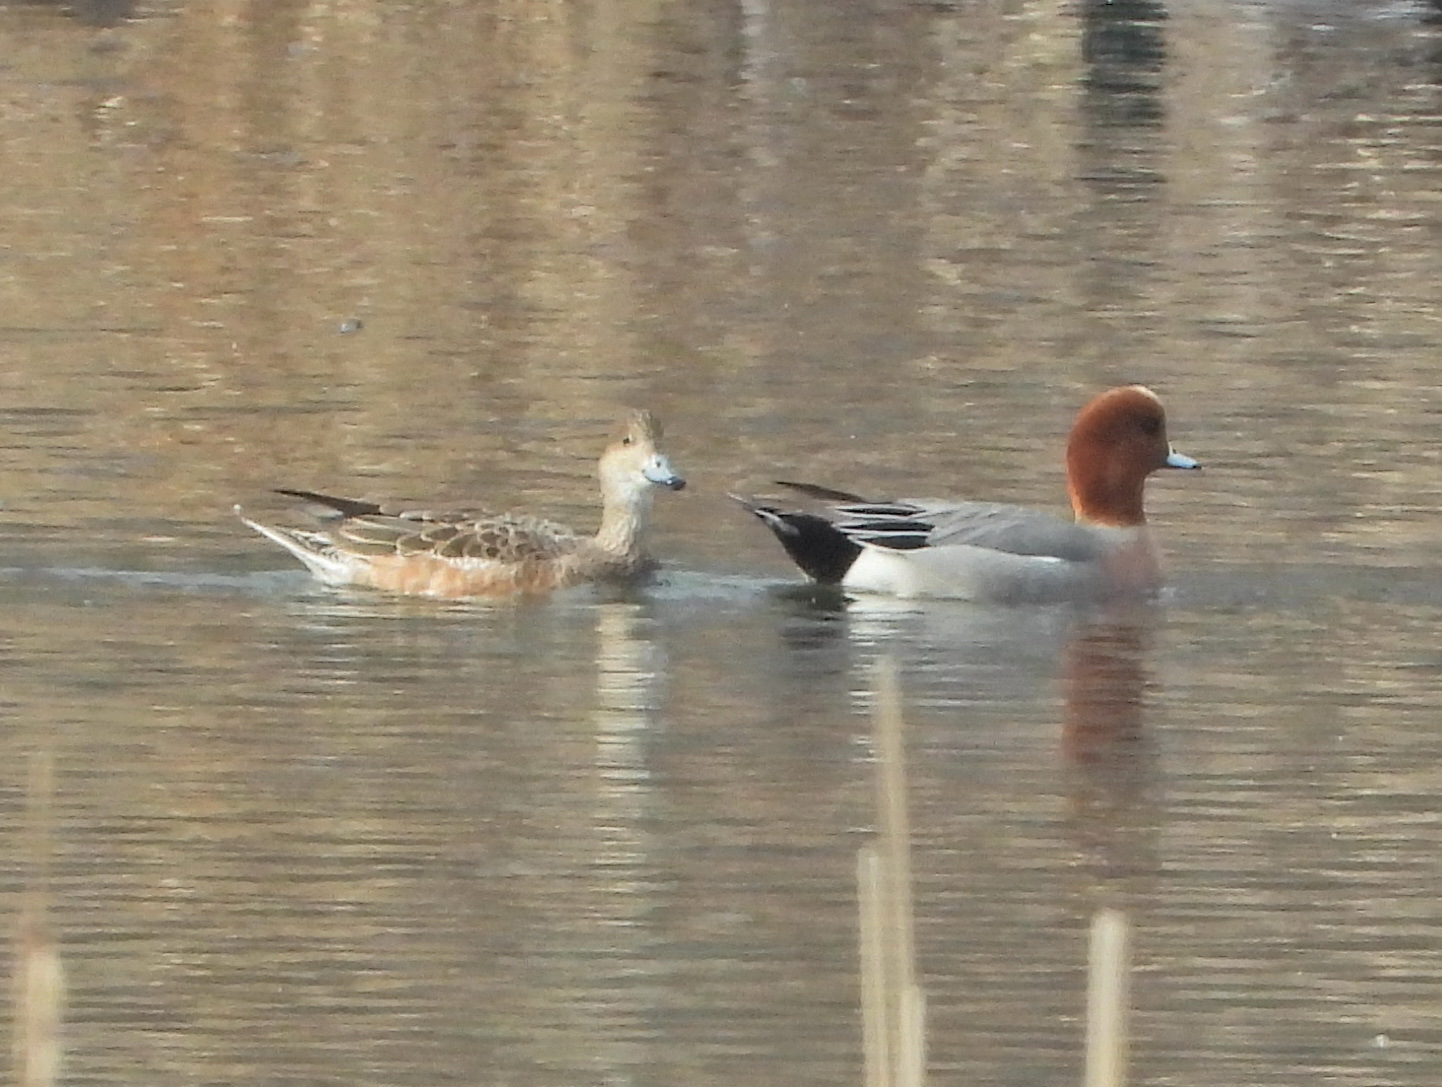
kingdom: Animalia
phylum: Chordata
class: Aves
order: Anseriformes
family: Anatidae
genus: Mareca
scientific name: Mareca penelope
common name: Eurasian wigeon
